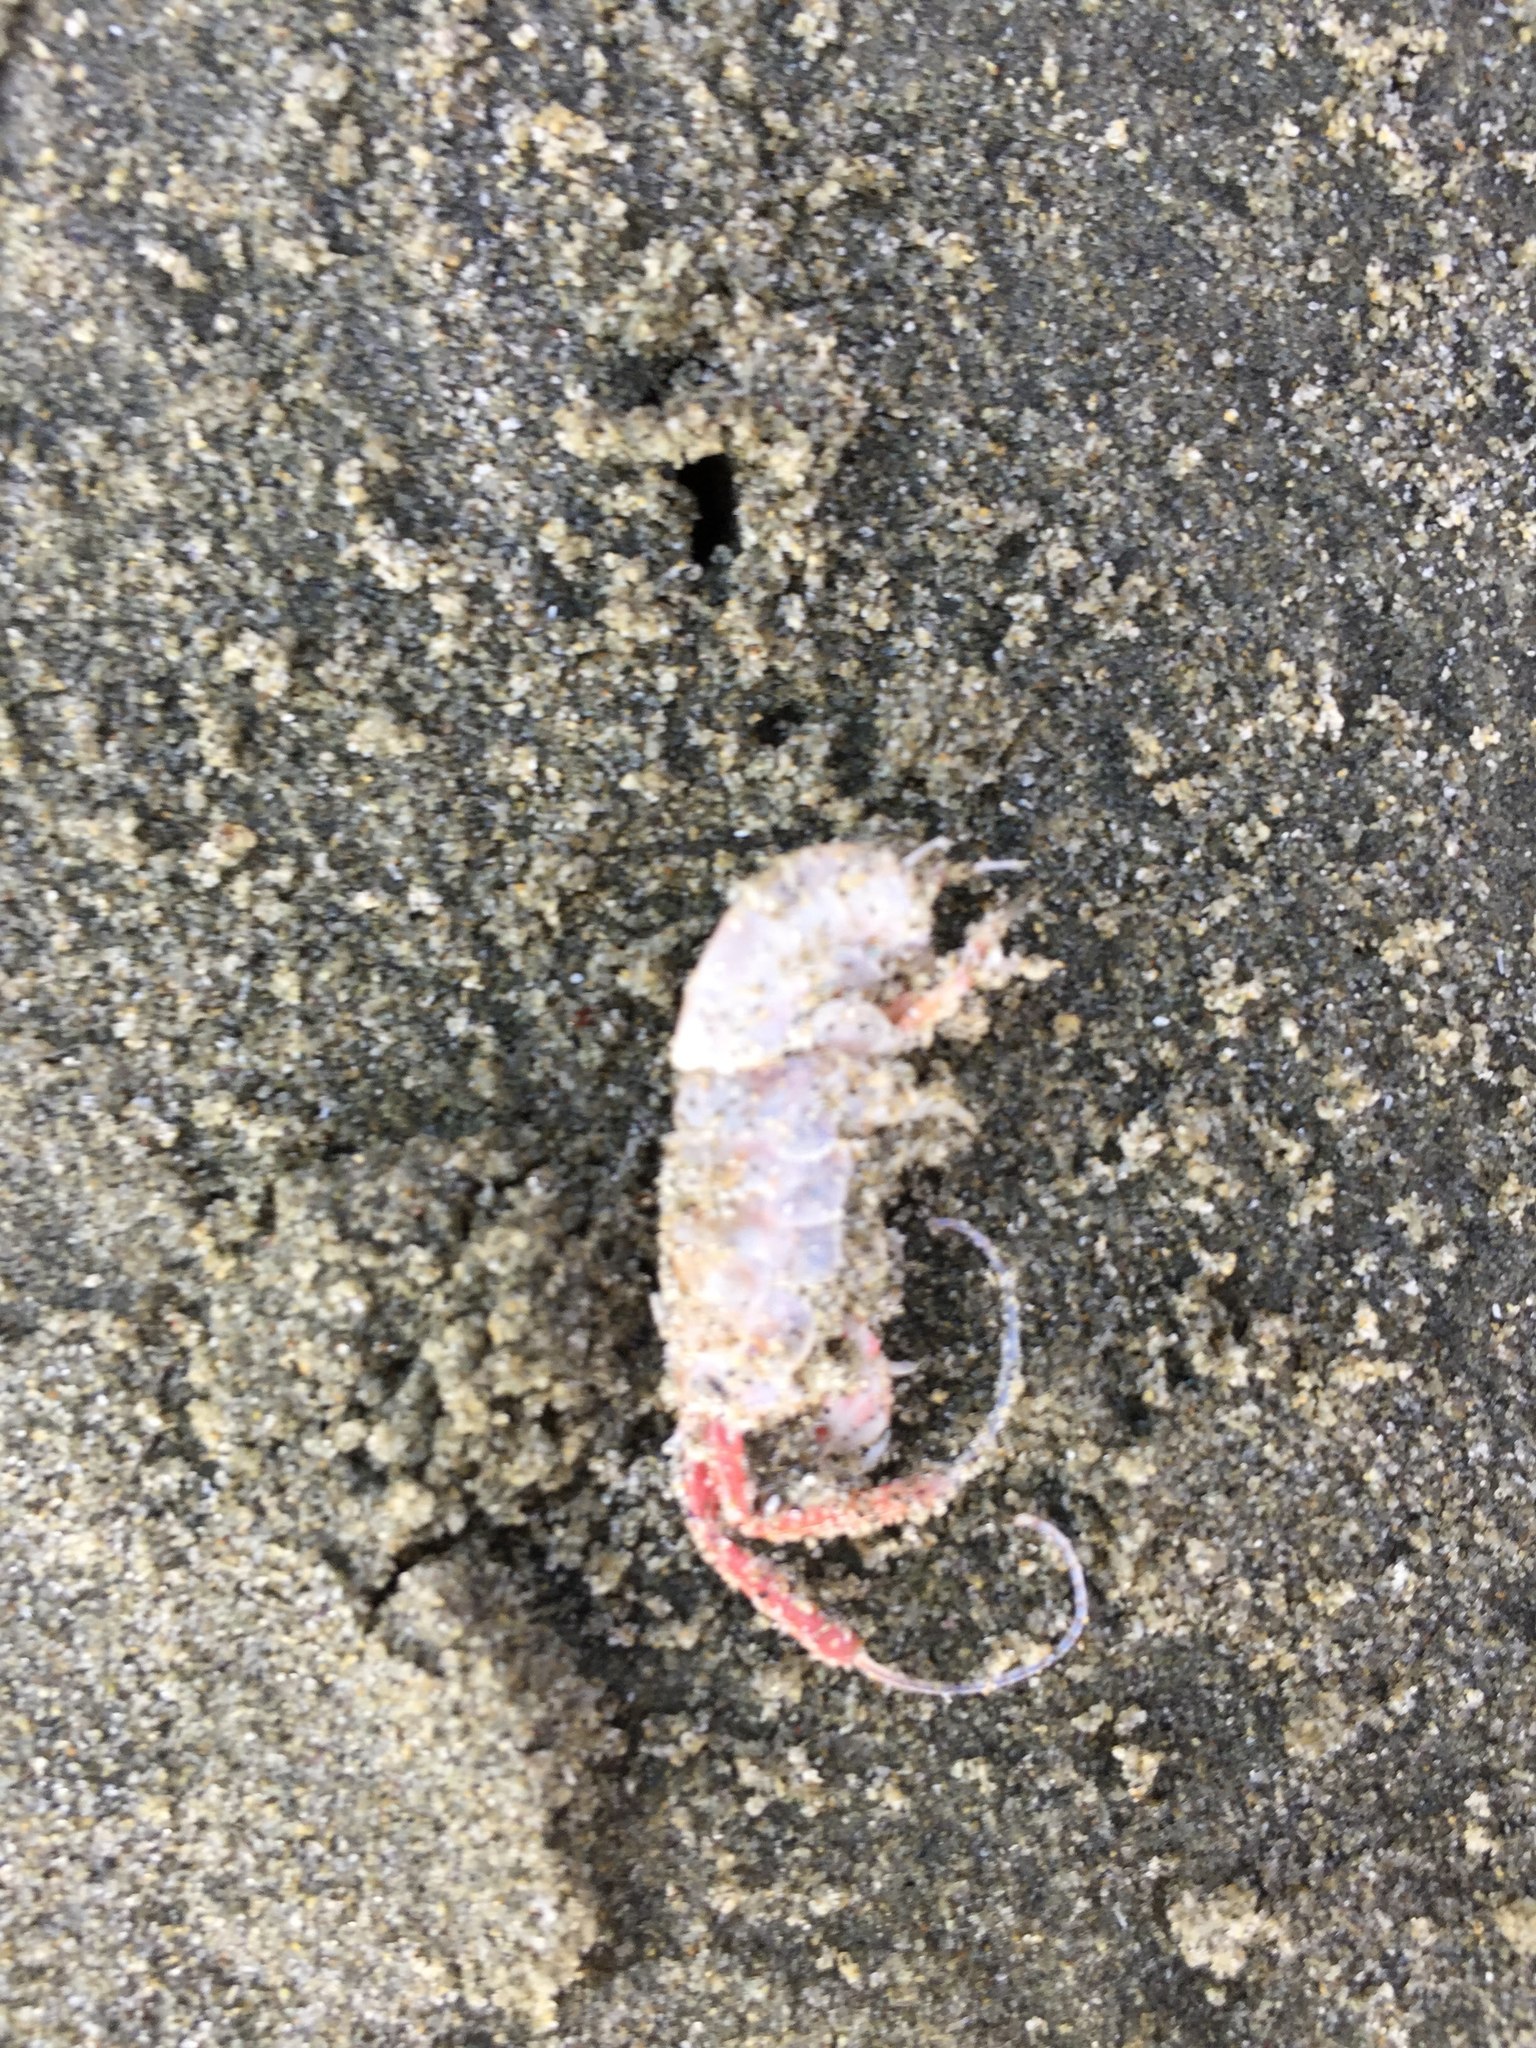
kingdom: Animalia
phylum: Arthropoda
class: Malacostraca
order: Amphipoda
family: Talitridae
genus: Megalorchestia
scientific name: Megalorchestia californiana
